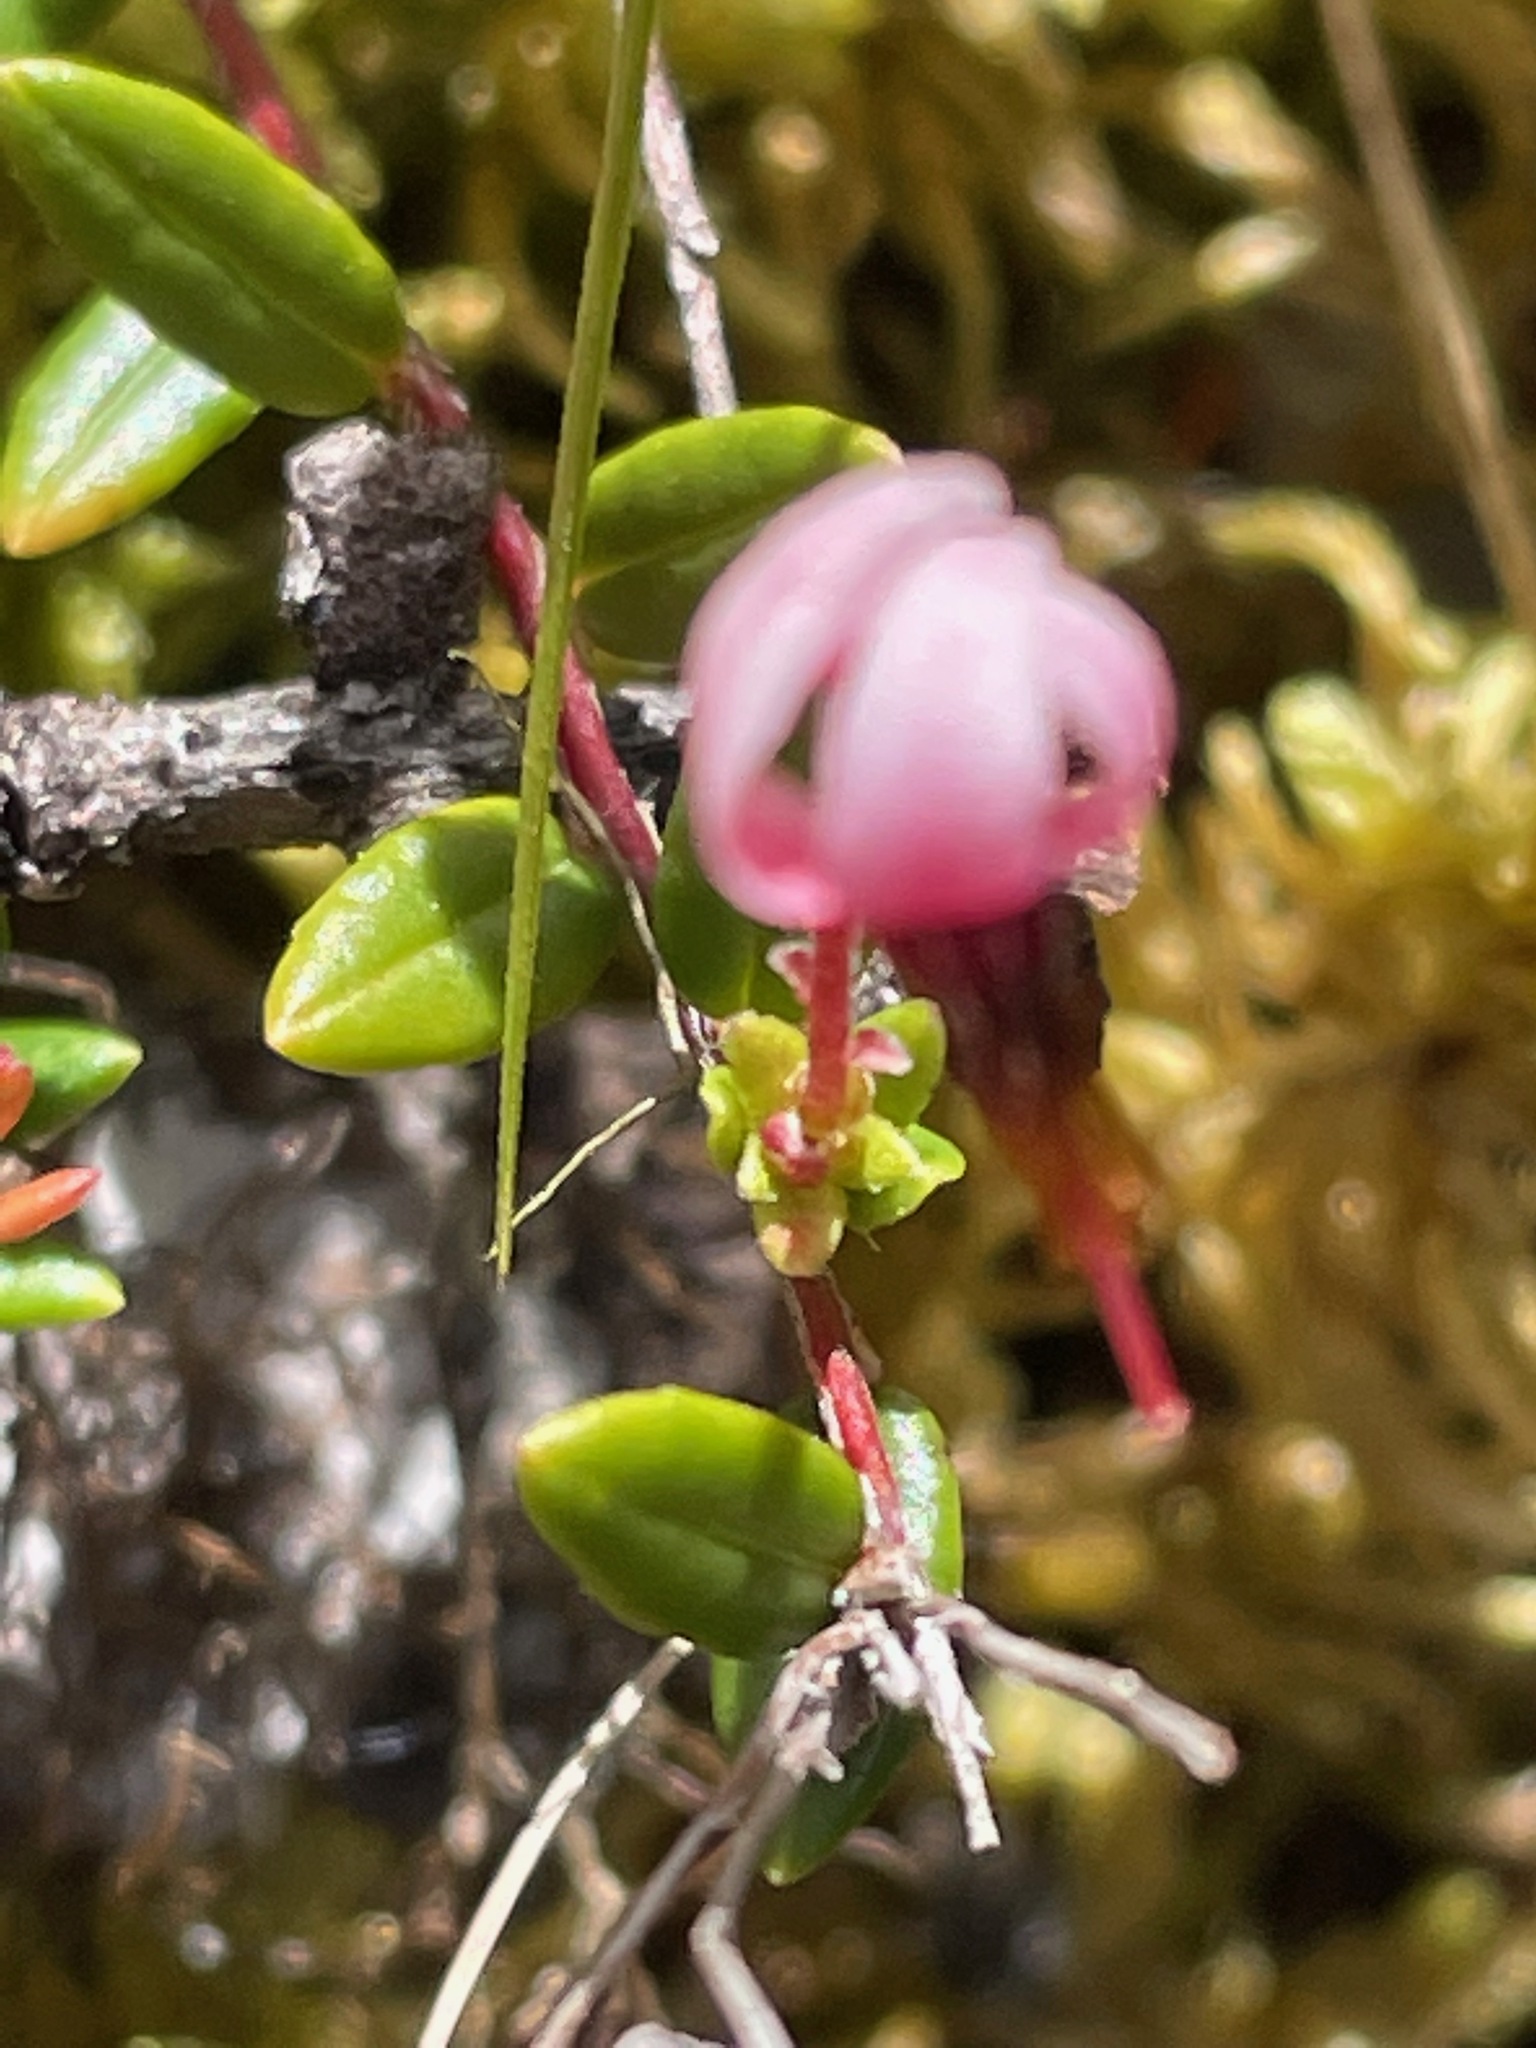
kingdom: Plantae
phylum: Tracheophyta
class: Magnoliopsida
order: Ericales
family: Ericaceae
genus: Vaccinium
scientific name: Vaccinium oxycoccos
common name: Cranberry
